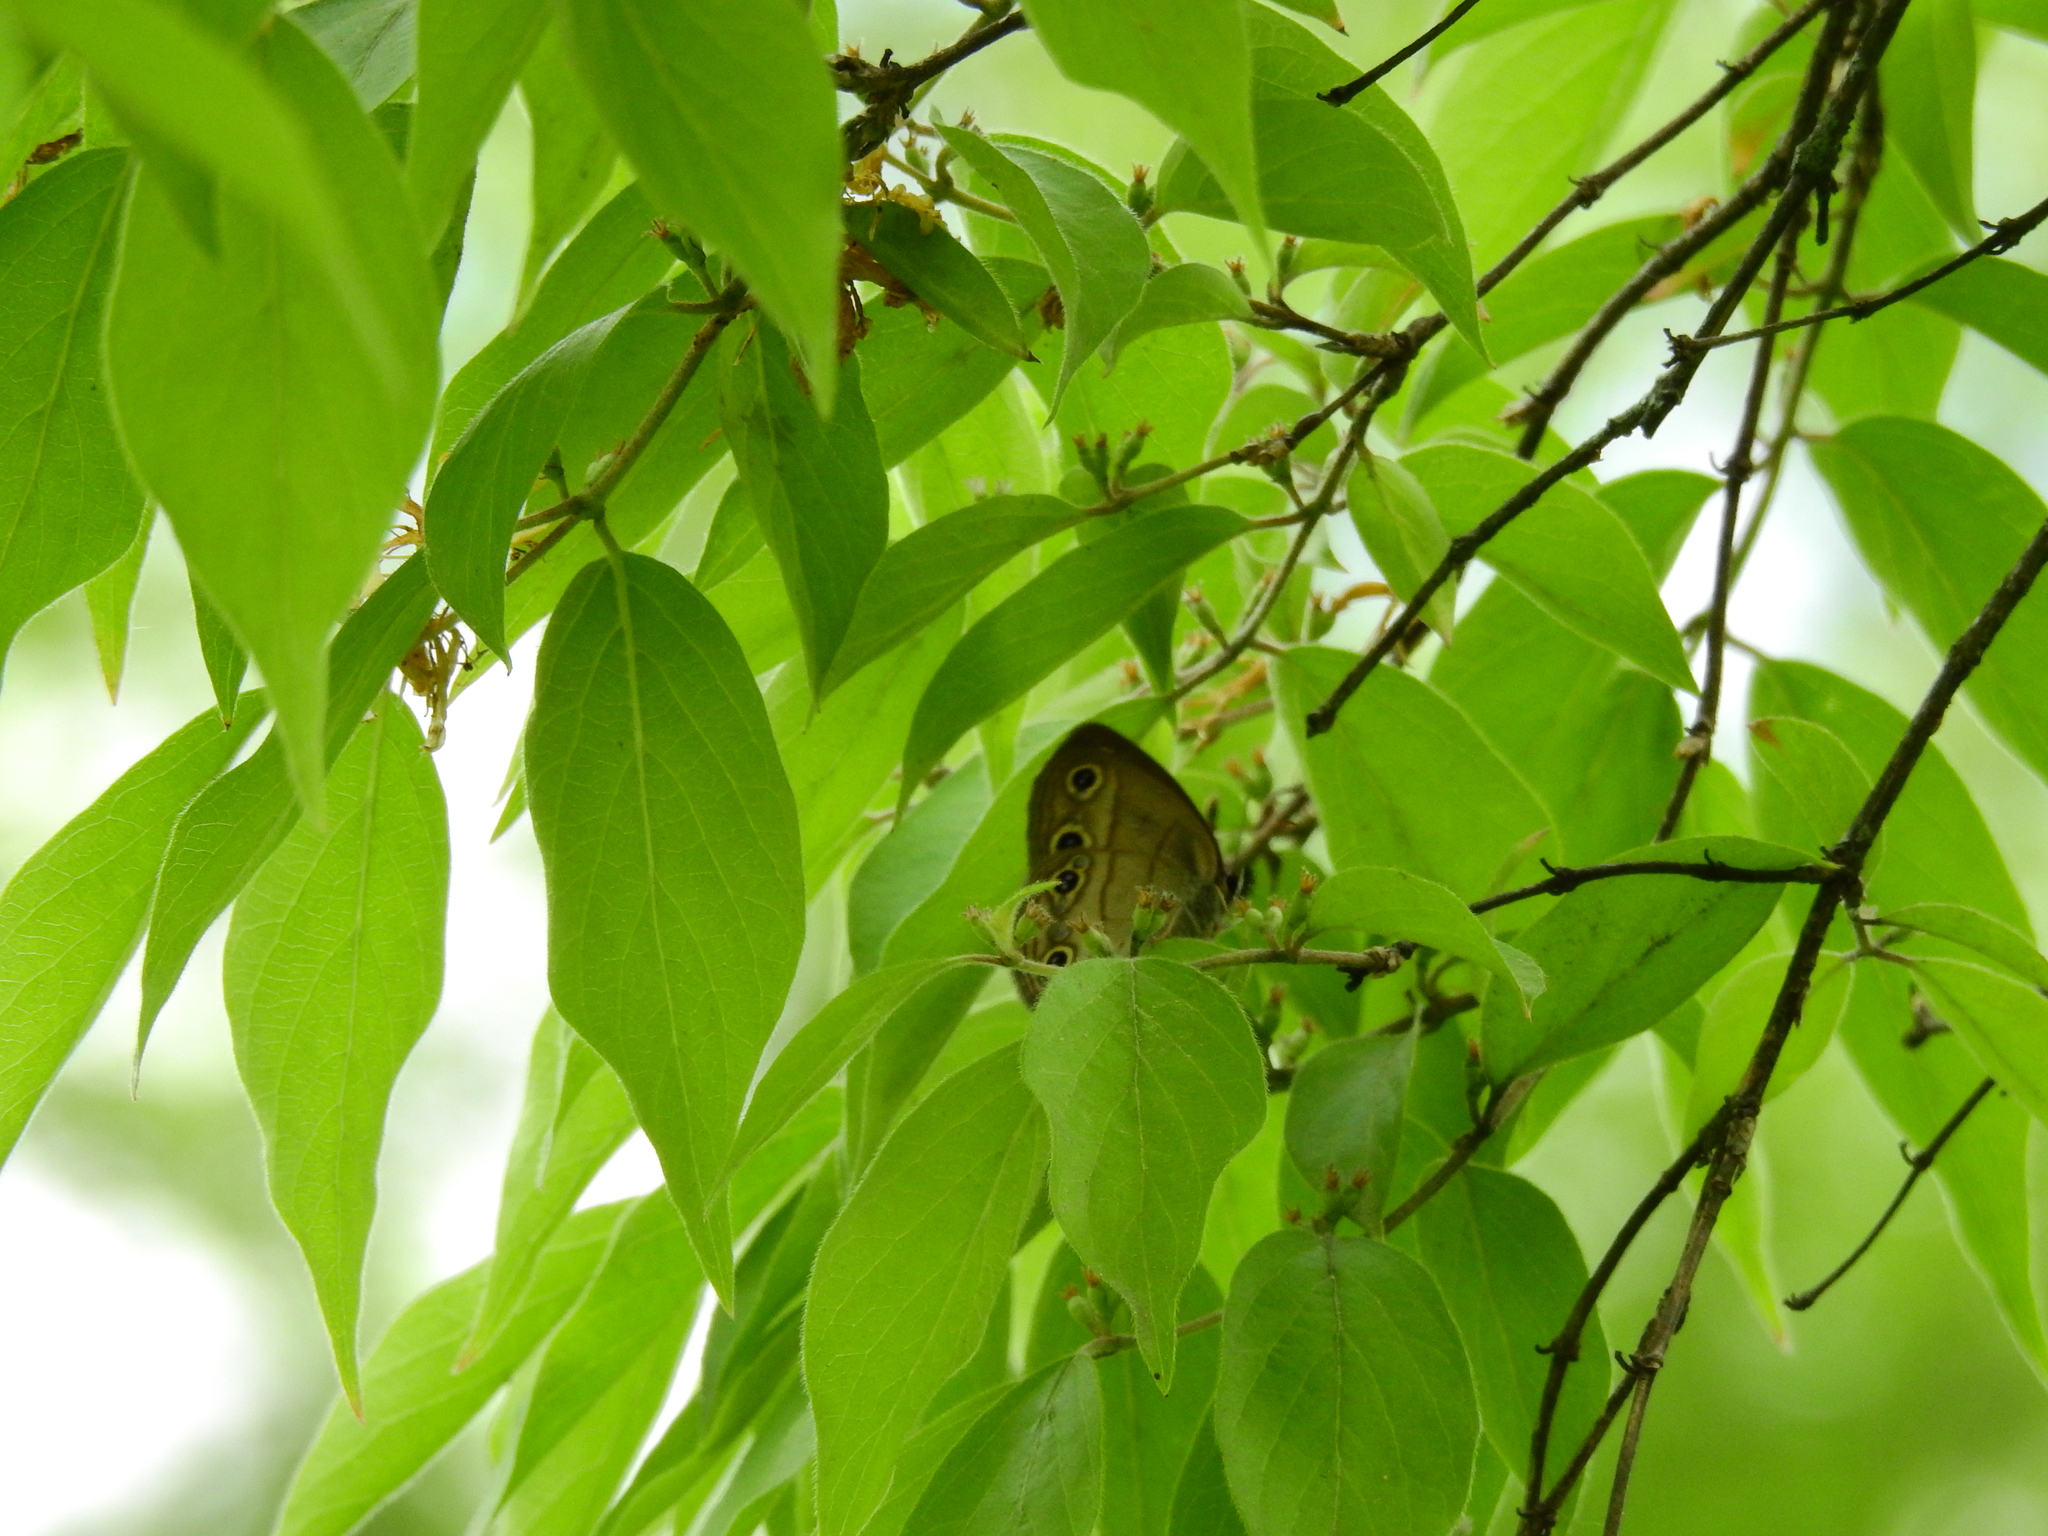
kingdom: Animalia
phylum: Arthropoda
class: Insecta
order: Lepidoptera
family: Nymphalidae
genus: Euptychia
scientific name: Euptychia cymela
